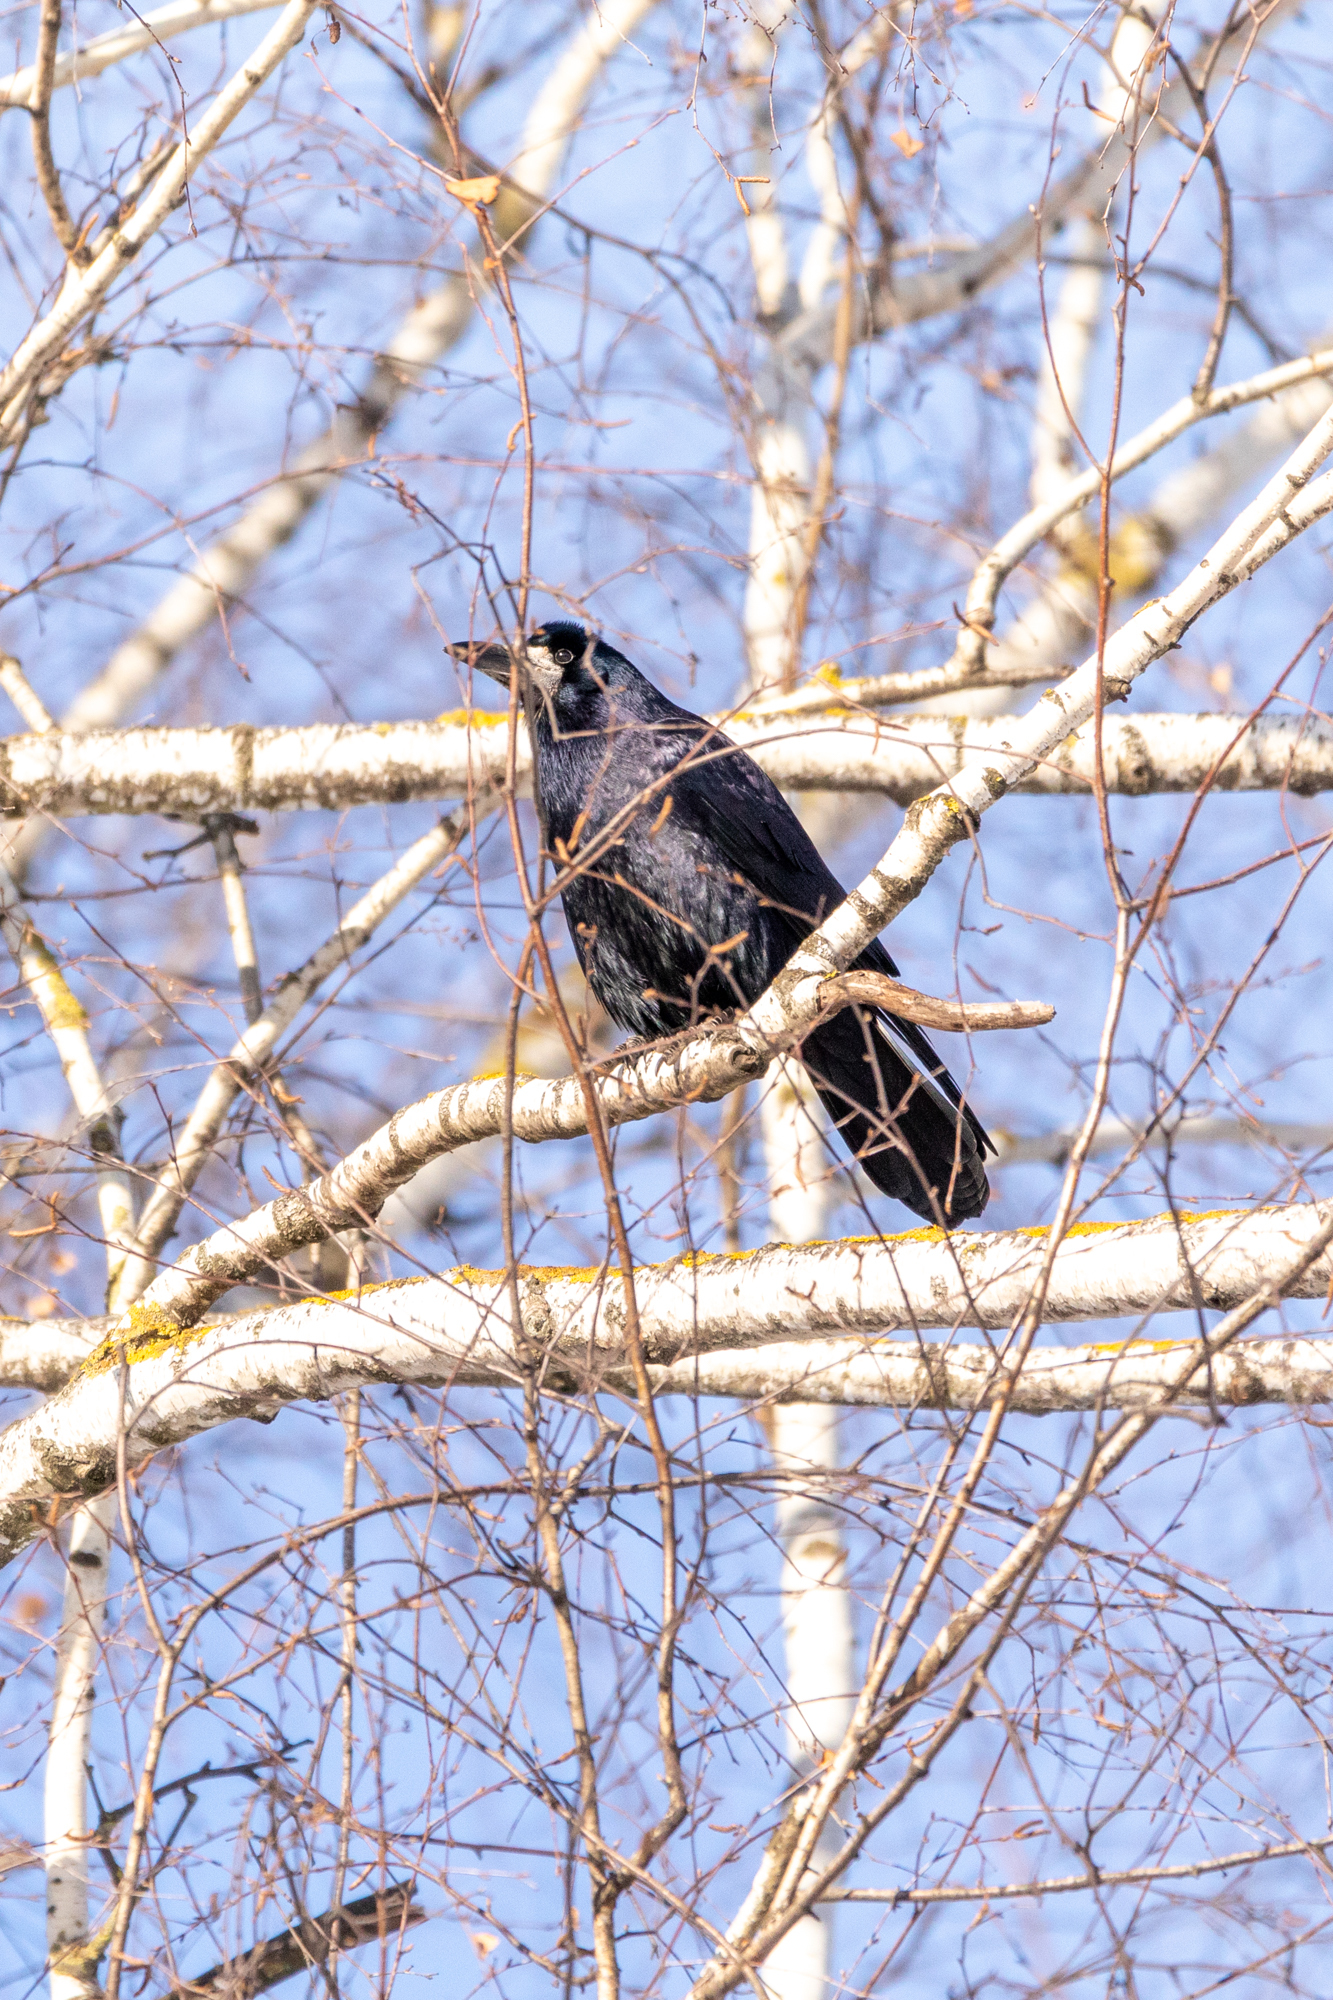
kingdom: Animalia
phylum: Chordata
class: Aves
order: Passeriformes
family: Corvidae
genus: Corvus
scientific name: Corvus frugilegus
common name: Rook
